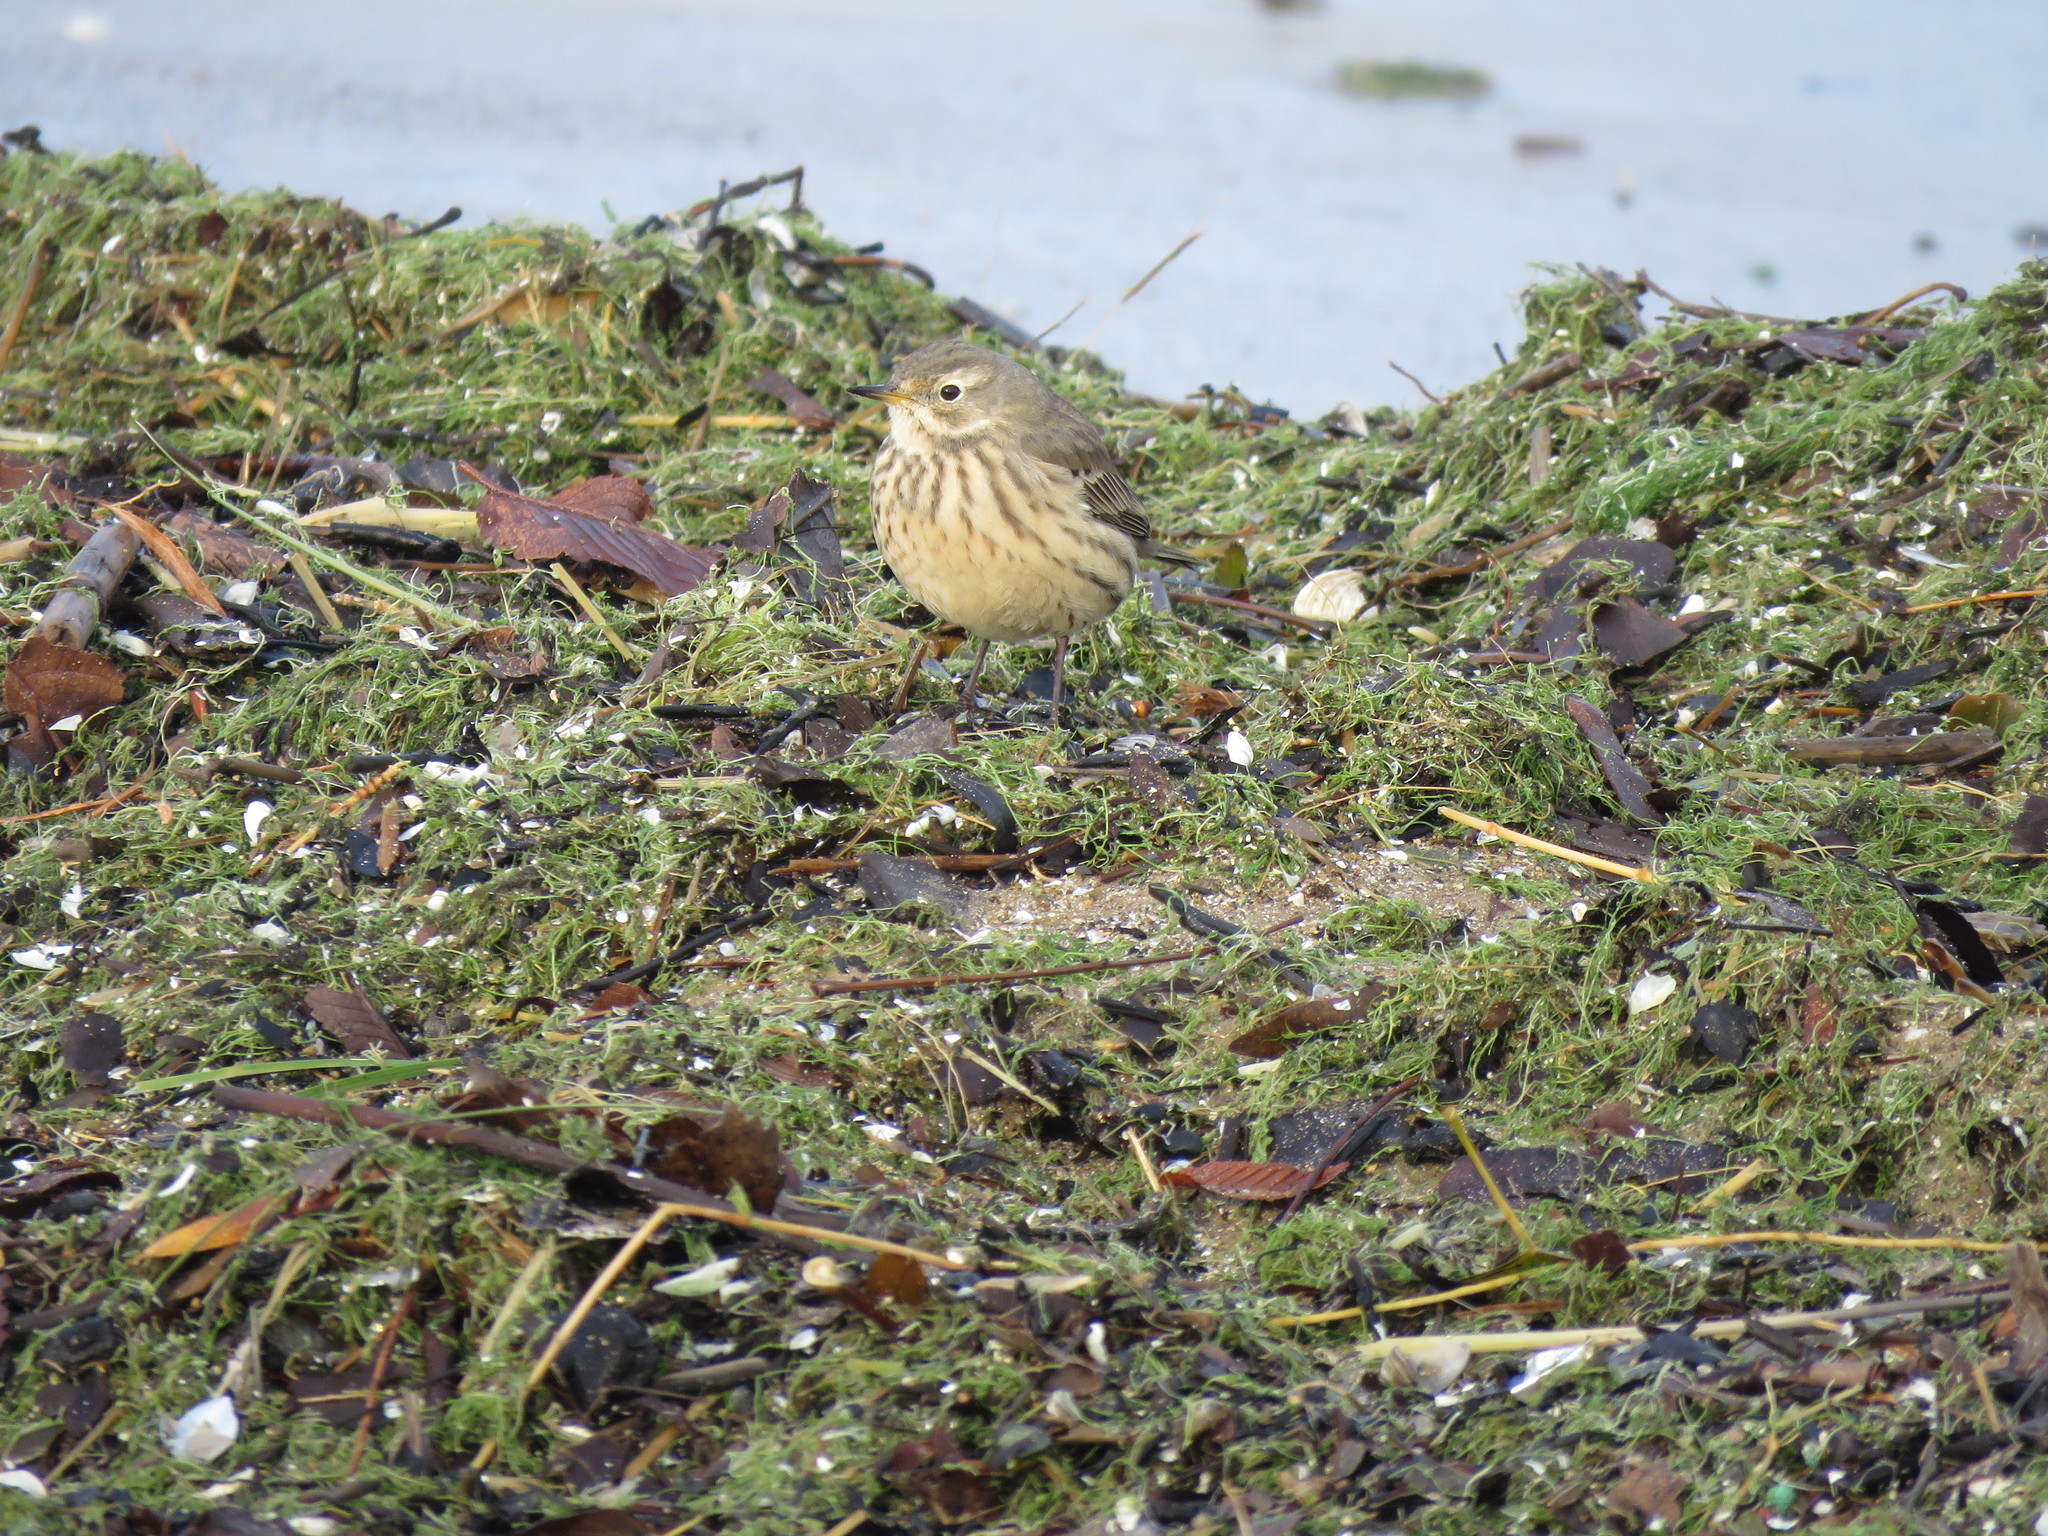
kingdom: Animalia
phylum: Chordata
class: Aves
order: Passeriformes
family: Motacillidae
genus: Anthus
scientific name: Anthus rubescens
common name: Buff-bellied pipit
